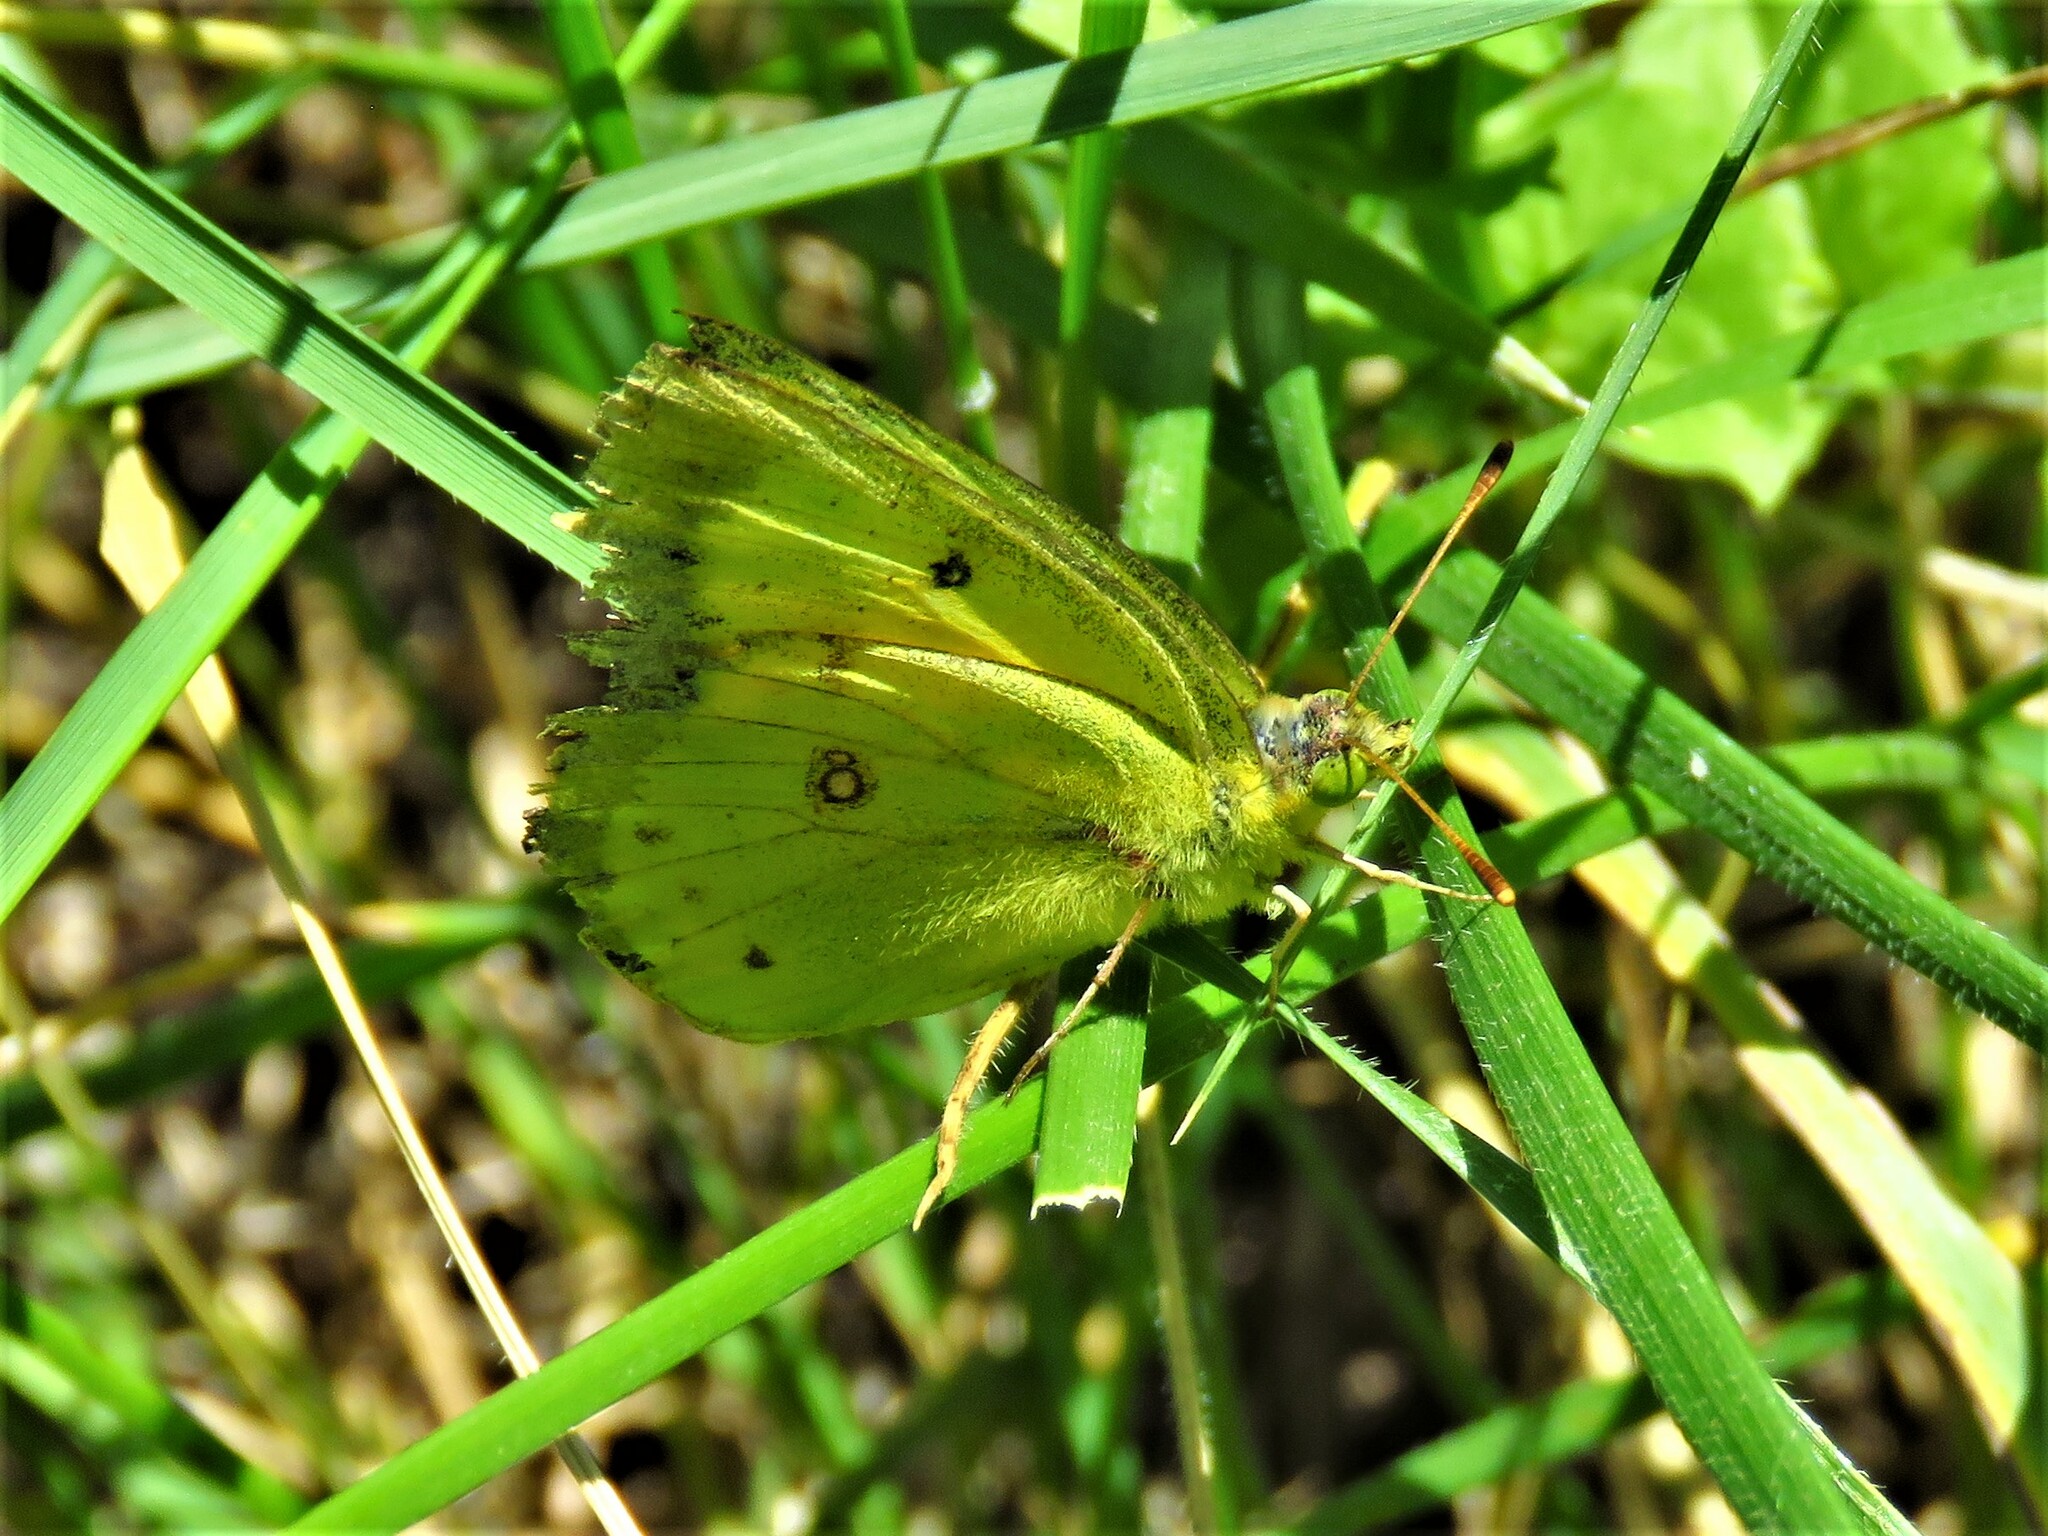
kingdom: Animalia
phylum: Arthropoda
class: Insecta
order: Lepidoptera
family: Pieridae
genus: Colias
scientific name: Colias eurytheme
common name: Alfalfa butterfly
